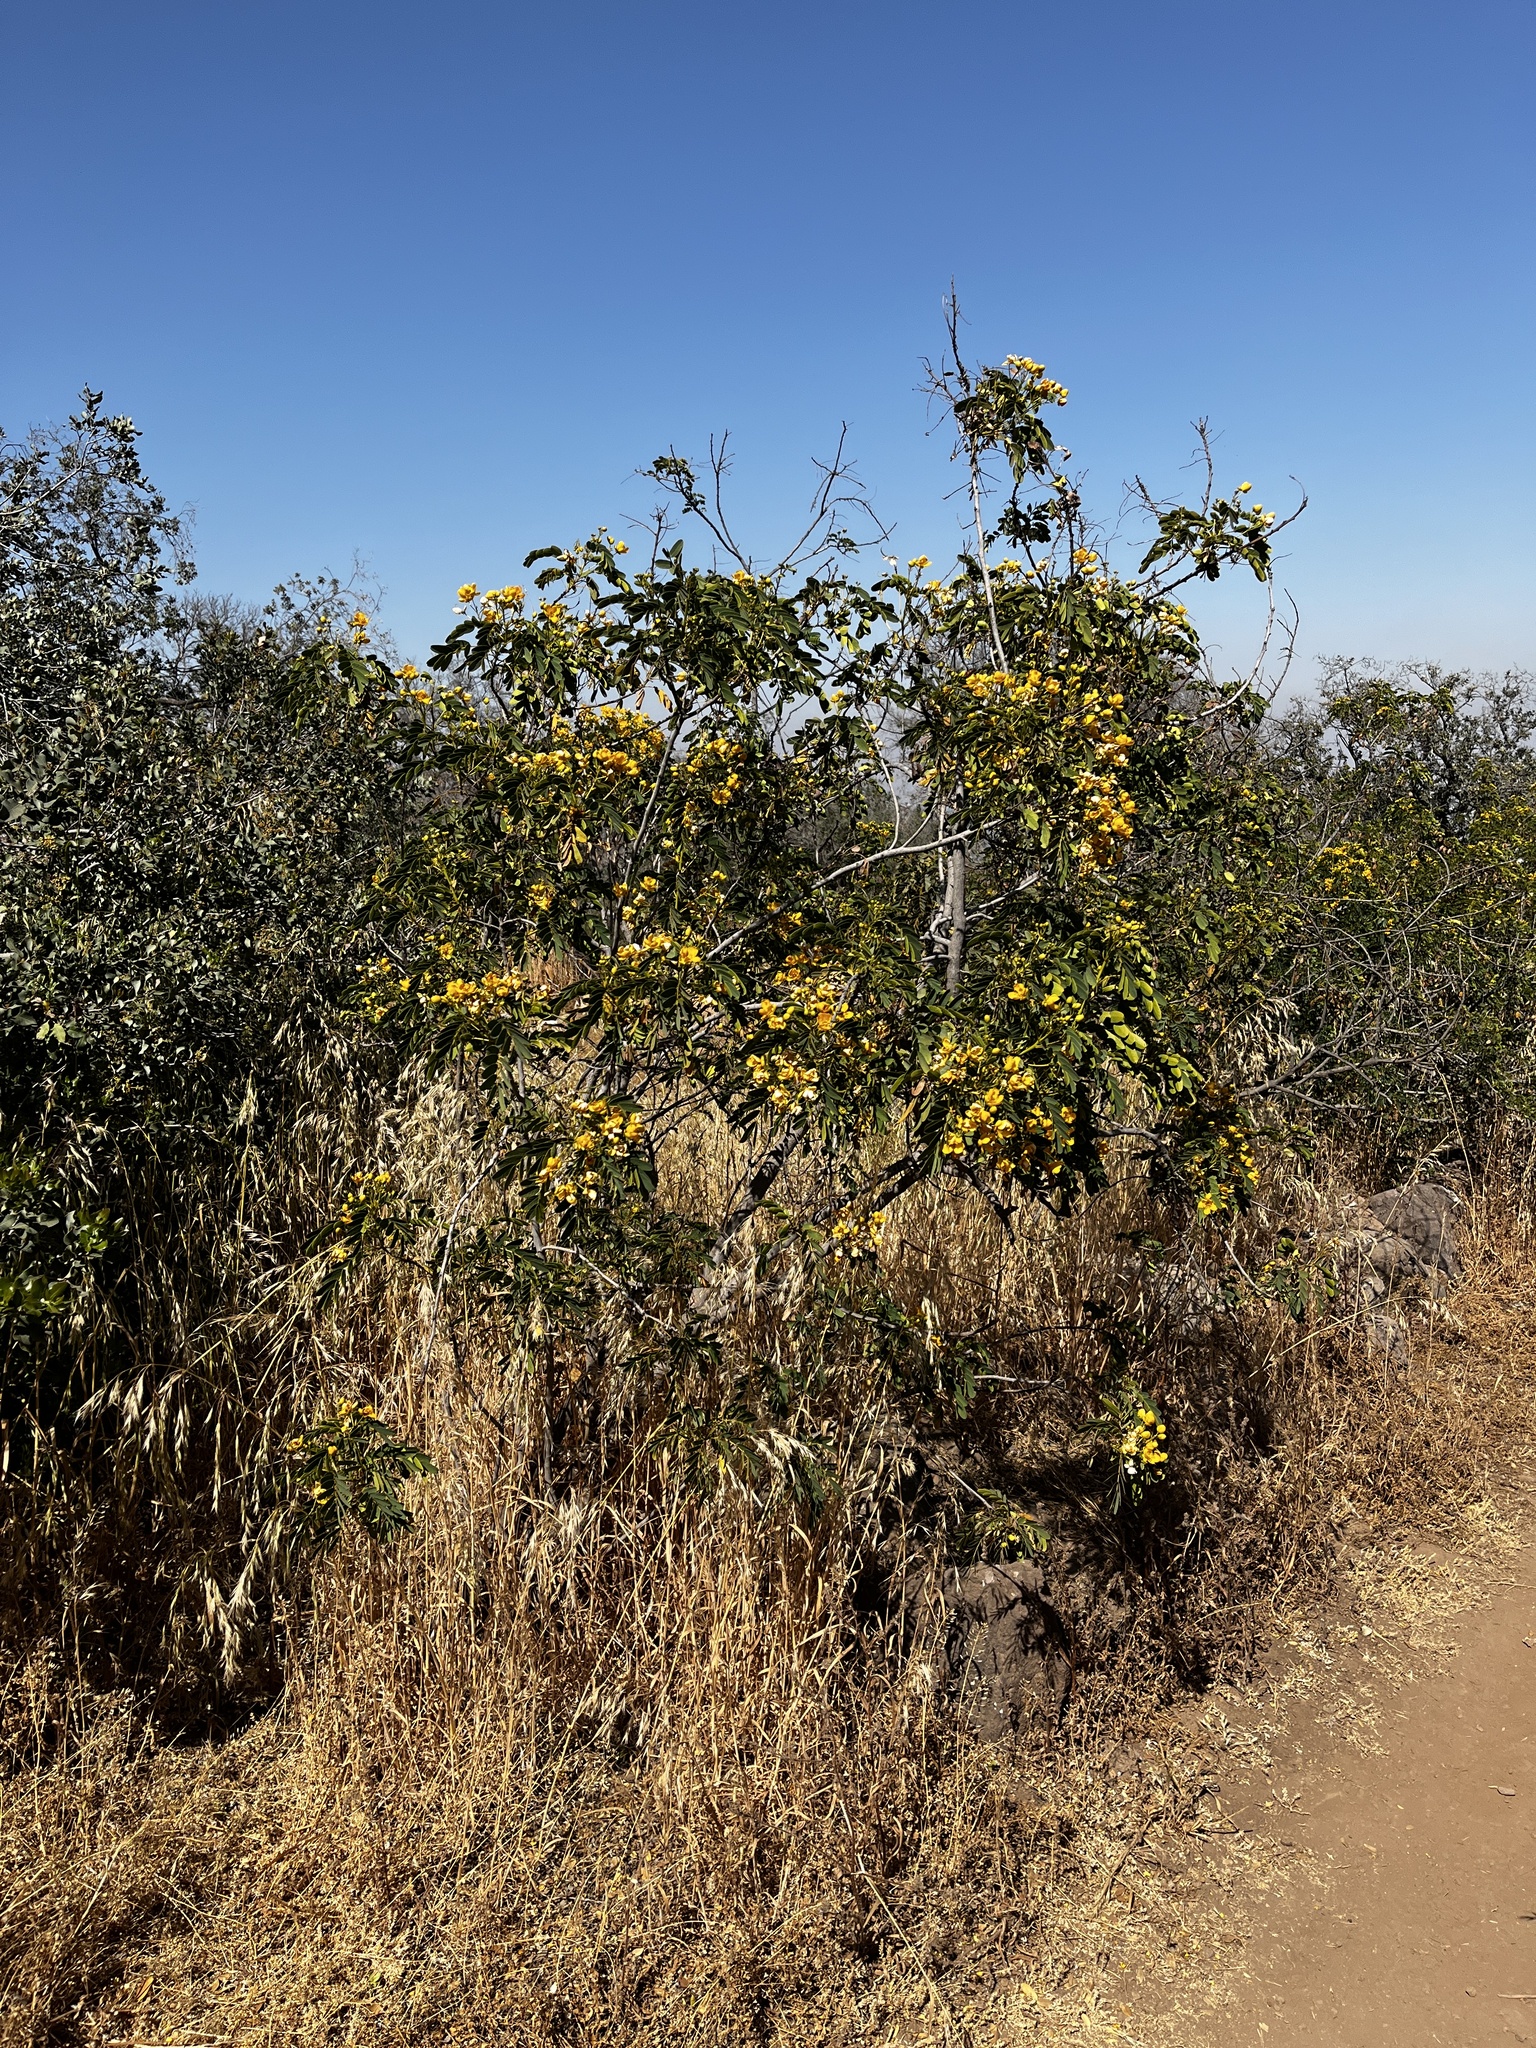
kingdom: Plantae
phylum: Tracheophyta
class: Magnoliopsida
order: Fabales
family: Fabaceae
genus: Senna
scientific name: Senna candolleana
